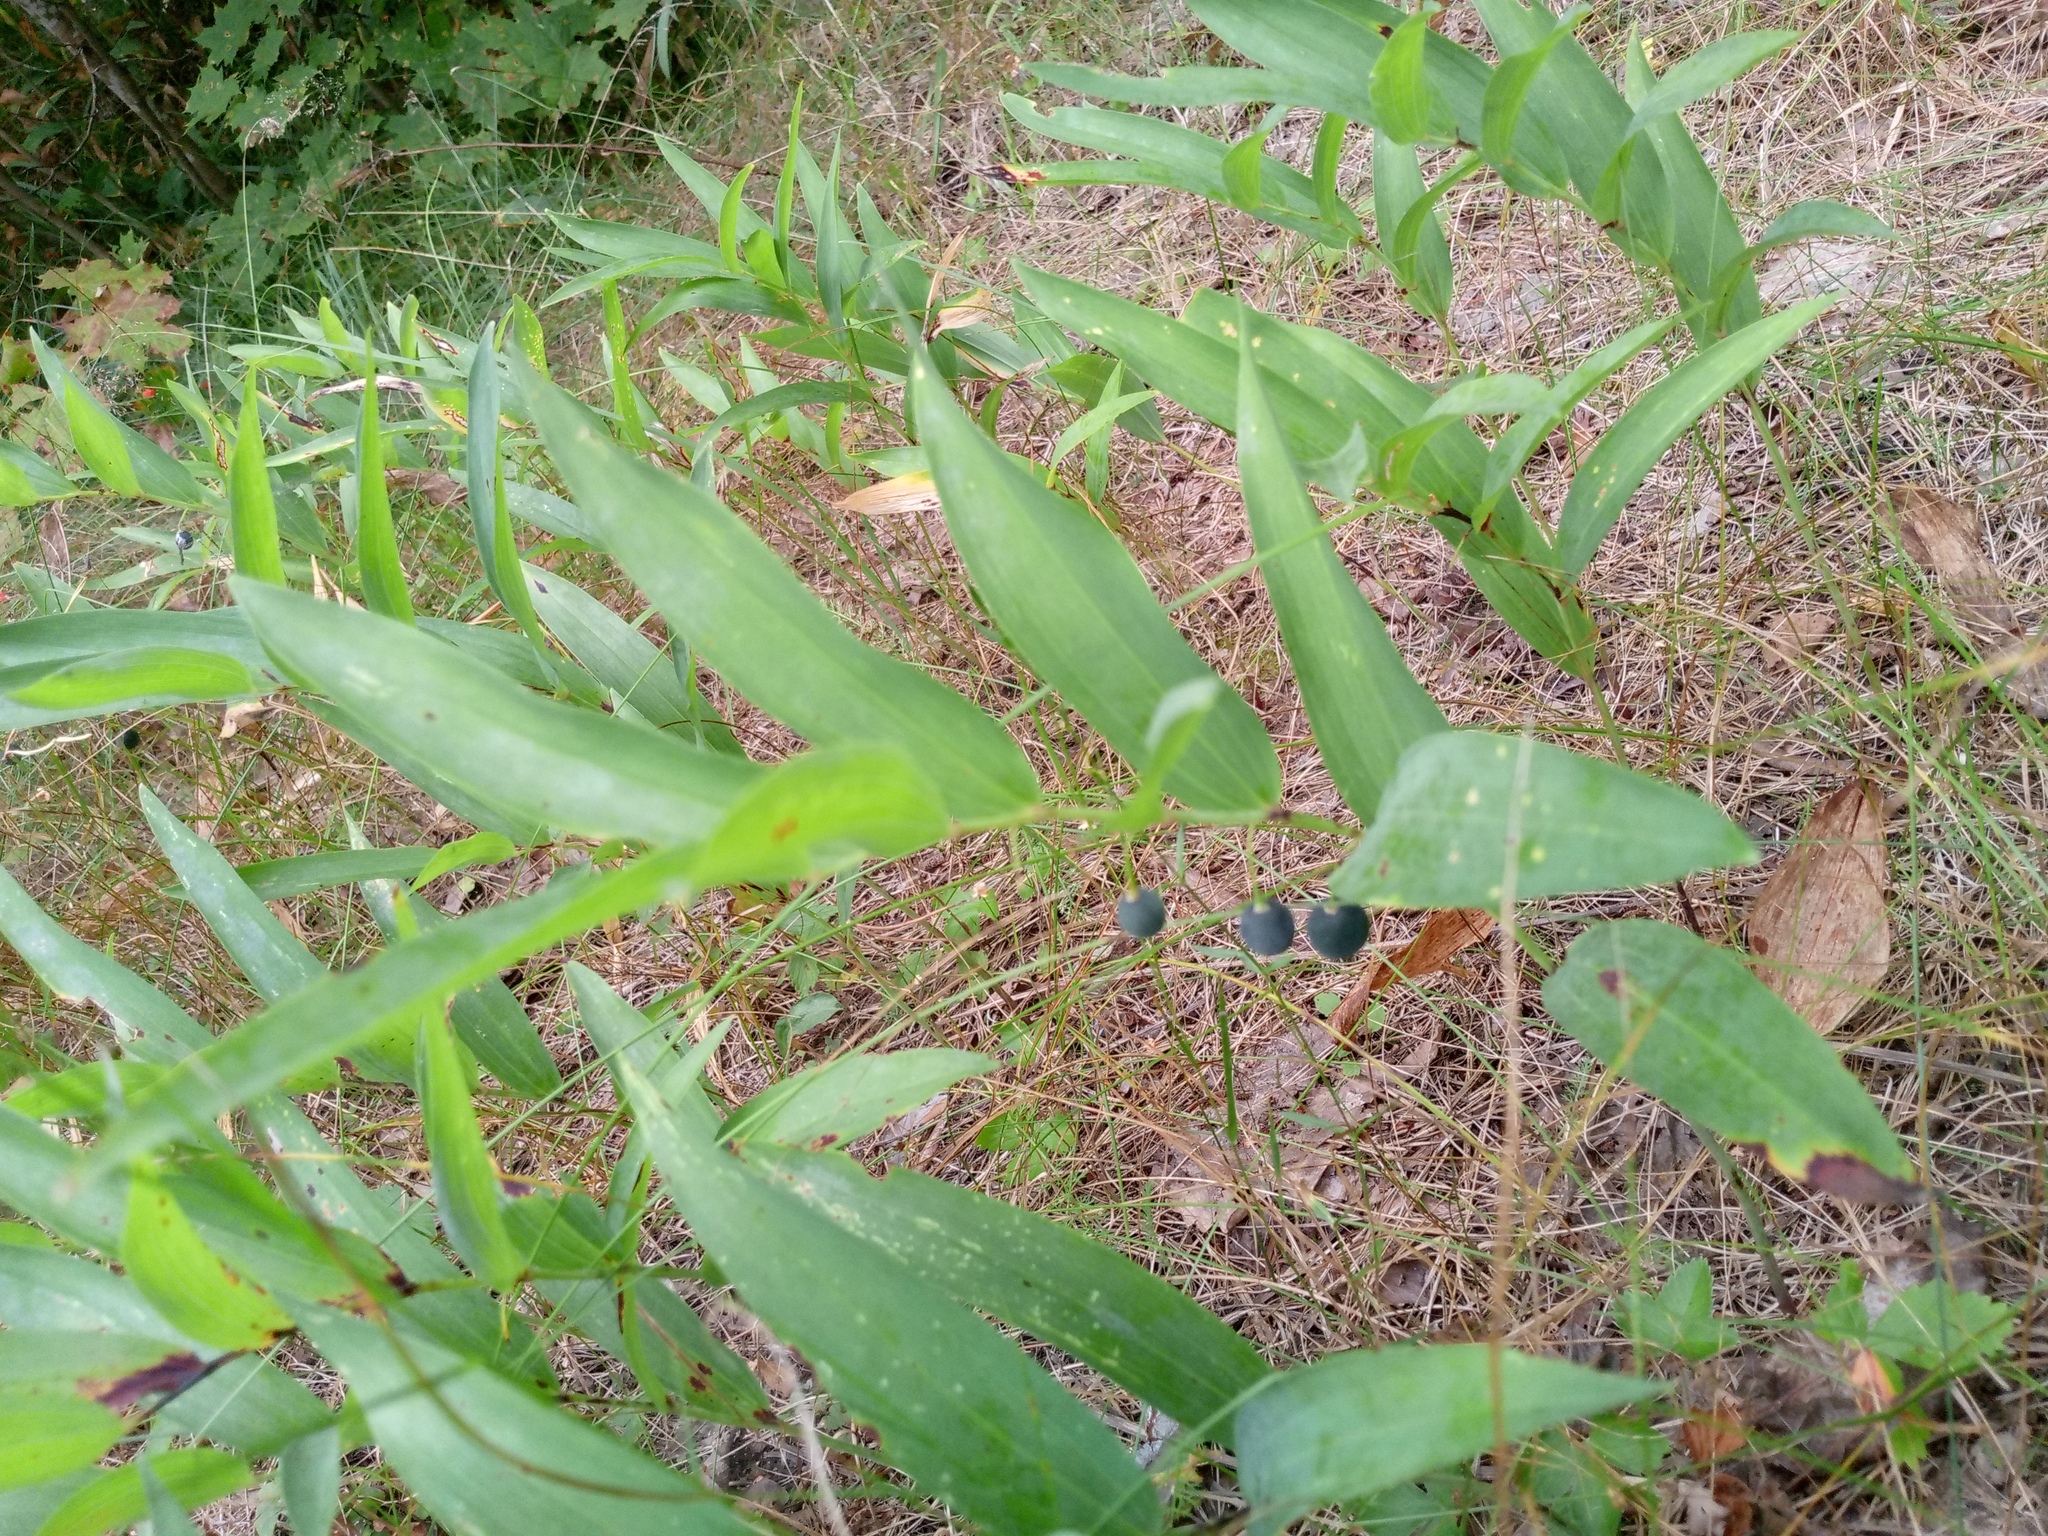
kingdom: Plantae
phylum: Tracheophyta
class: Liliopsida
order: Asparagales
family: Asparagaceae
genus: Polygonatum
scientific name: Polygonatum odoratum
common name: Angular solomon's-seal
